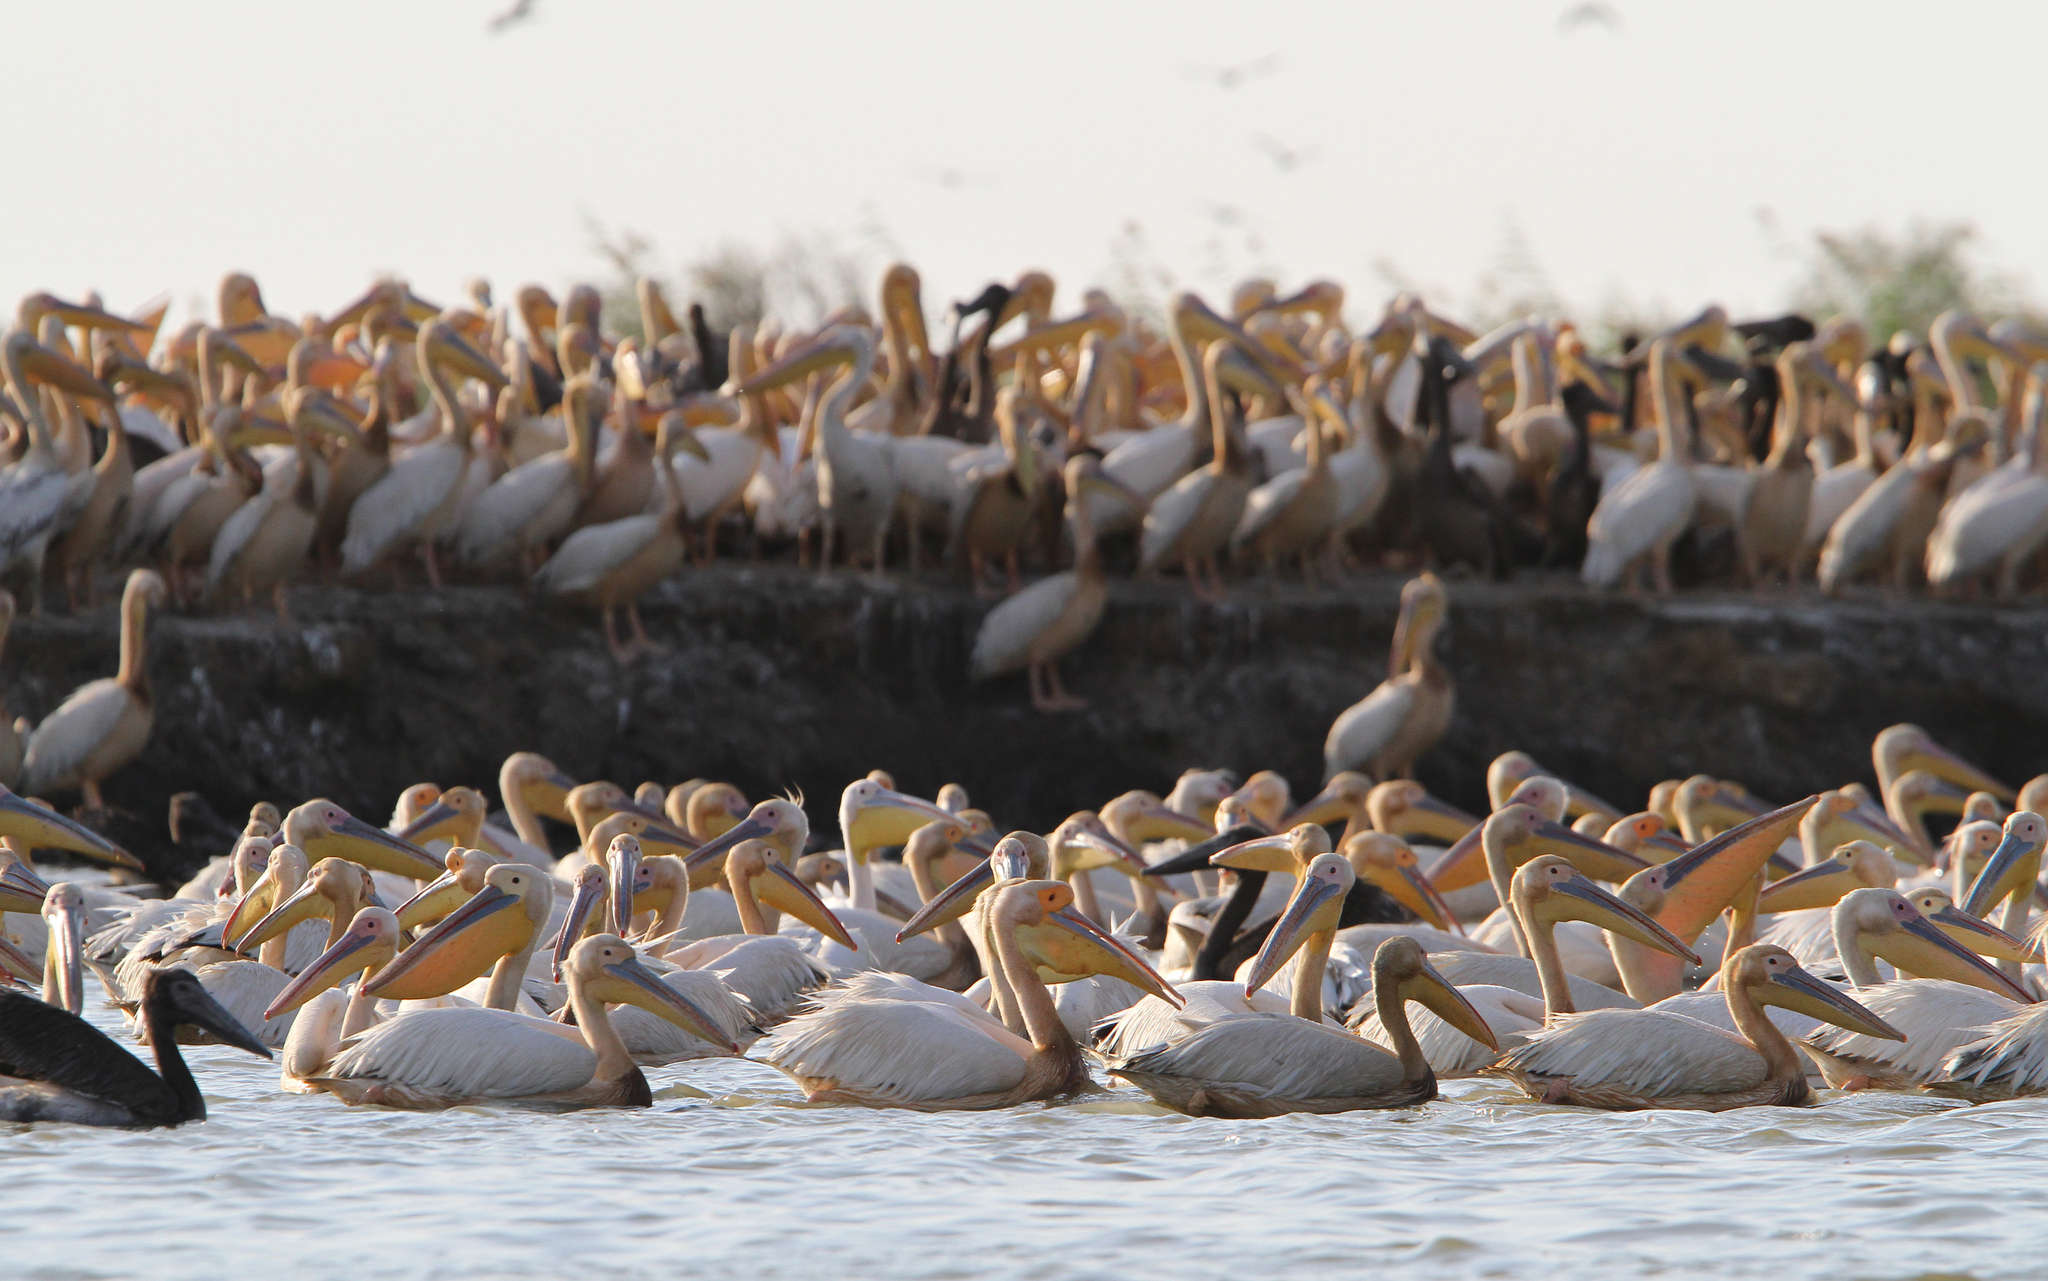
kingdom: Animalia
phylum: Chordata
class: Aves
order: Pelecaniformes
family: Pelecanidae
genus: Pelecanus
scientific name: Pelecanus onocrotalus
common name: Great white pelican
